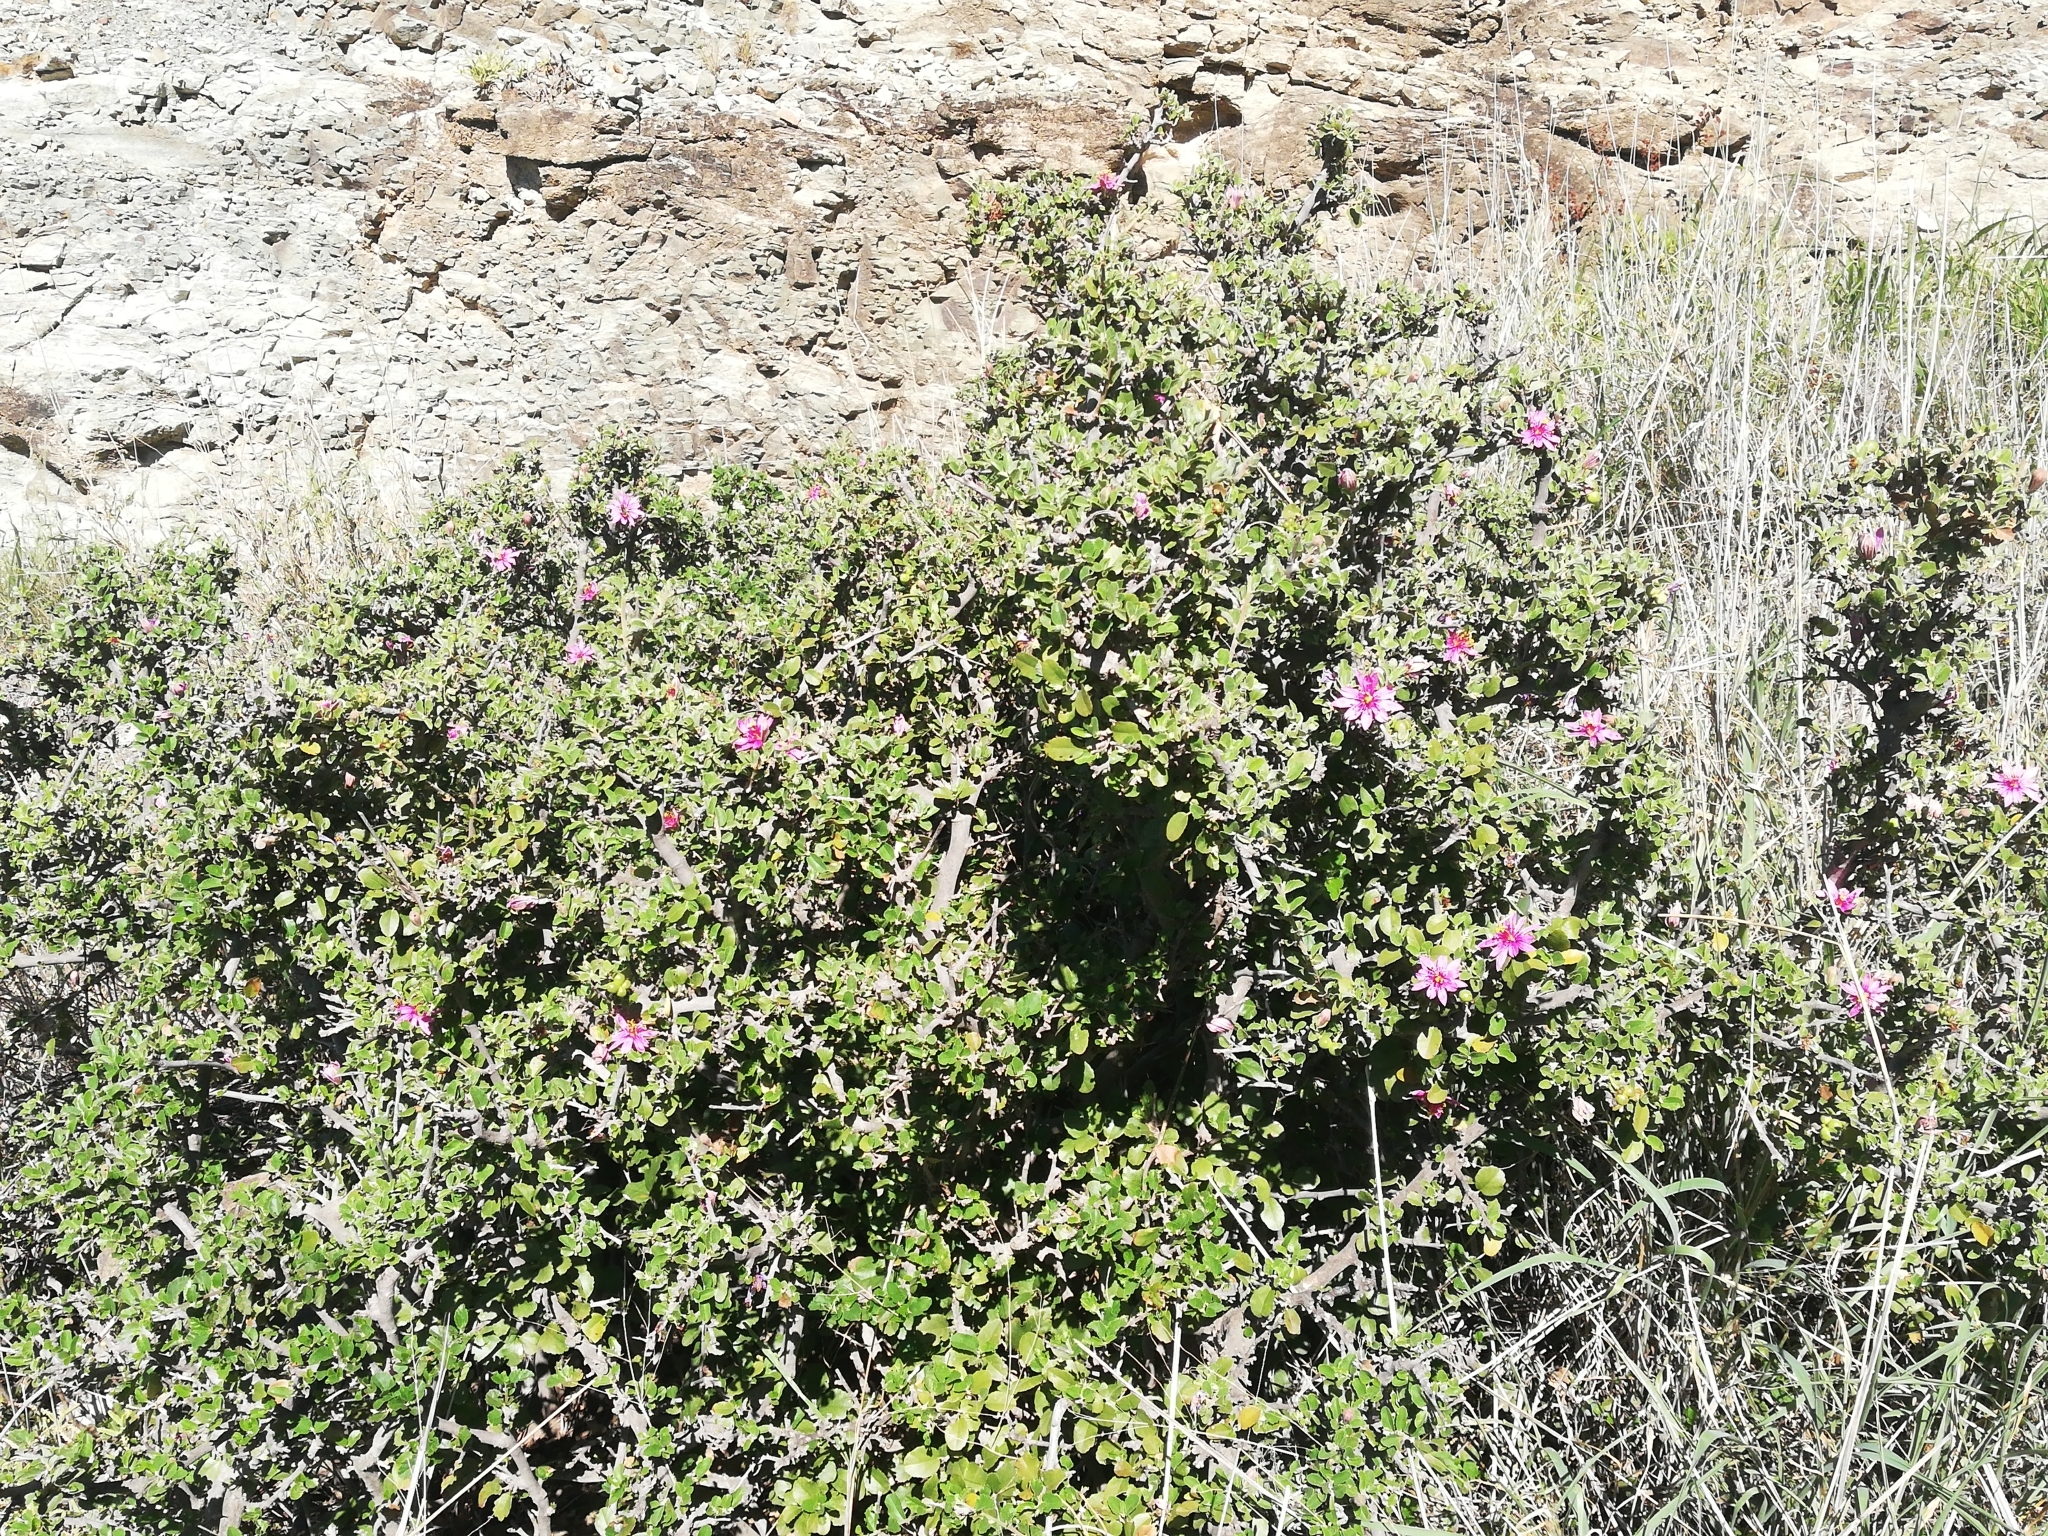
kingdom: Plantae
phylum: Tracheophyta
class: Magnoliopsida
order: Malvales
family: Malvaceae
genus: Grewia
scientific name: Grewia robusta
